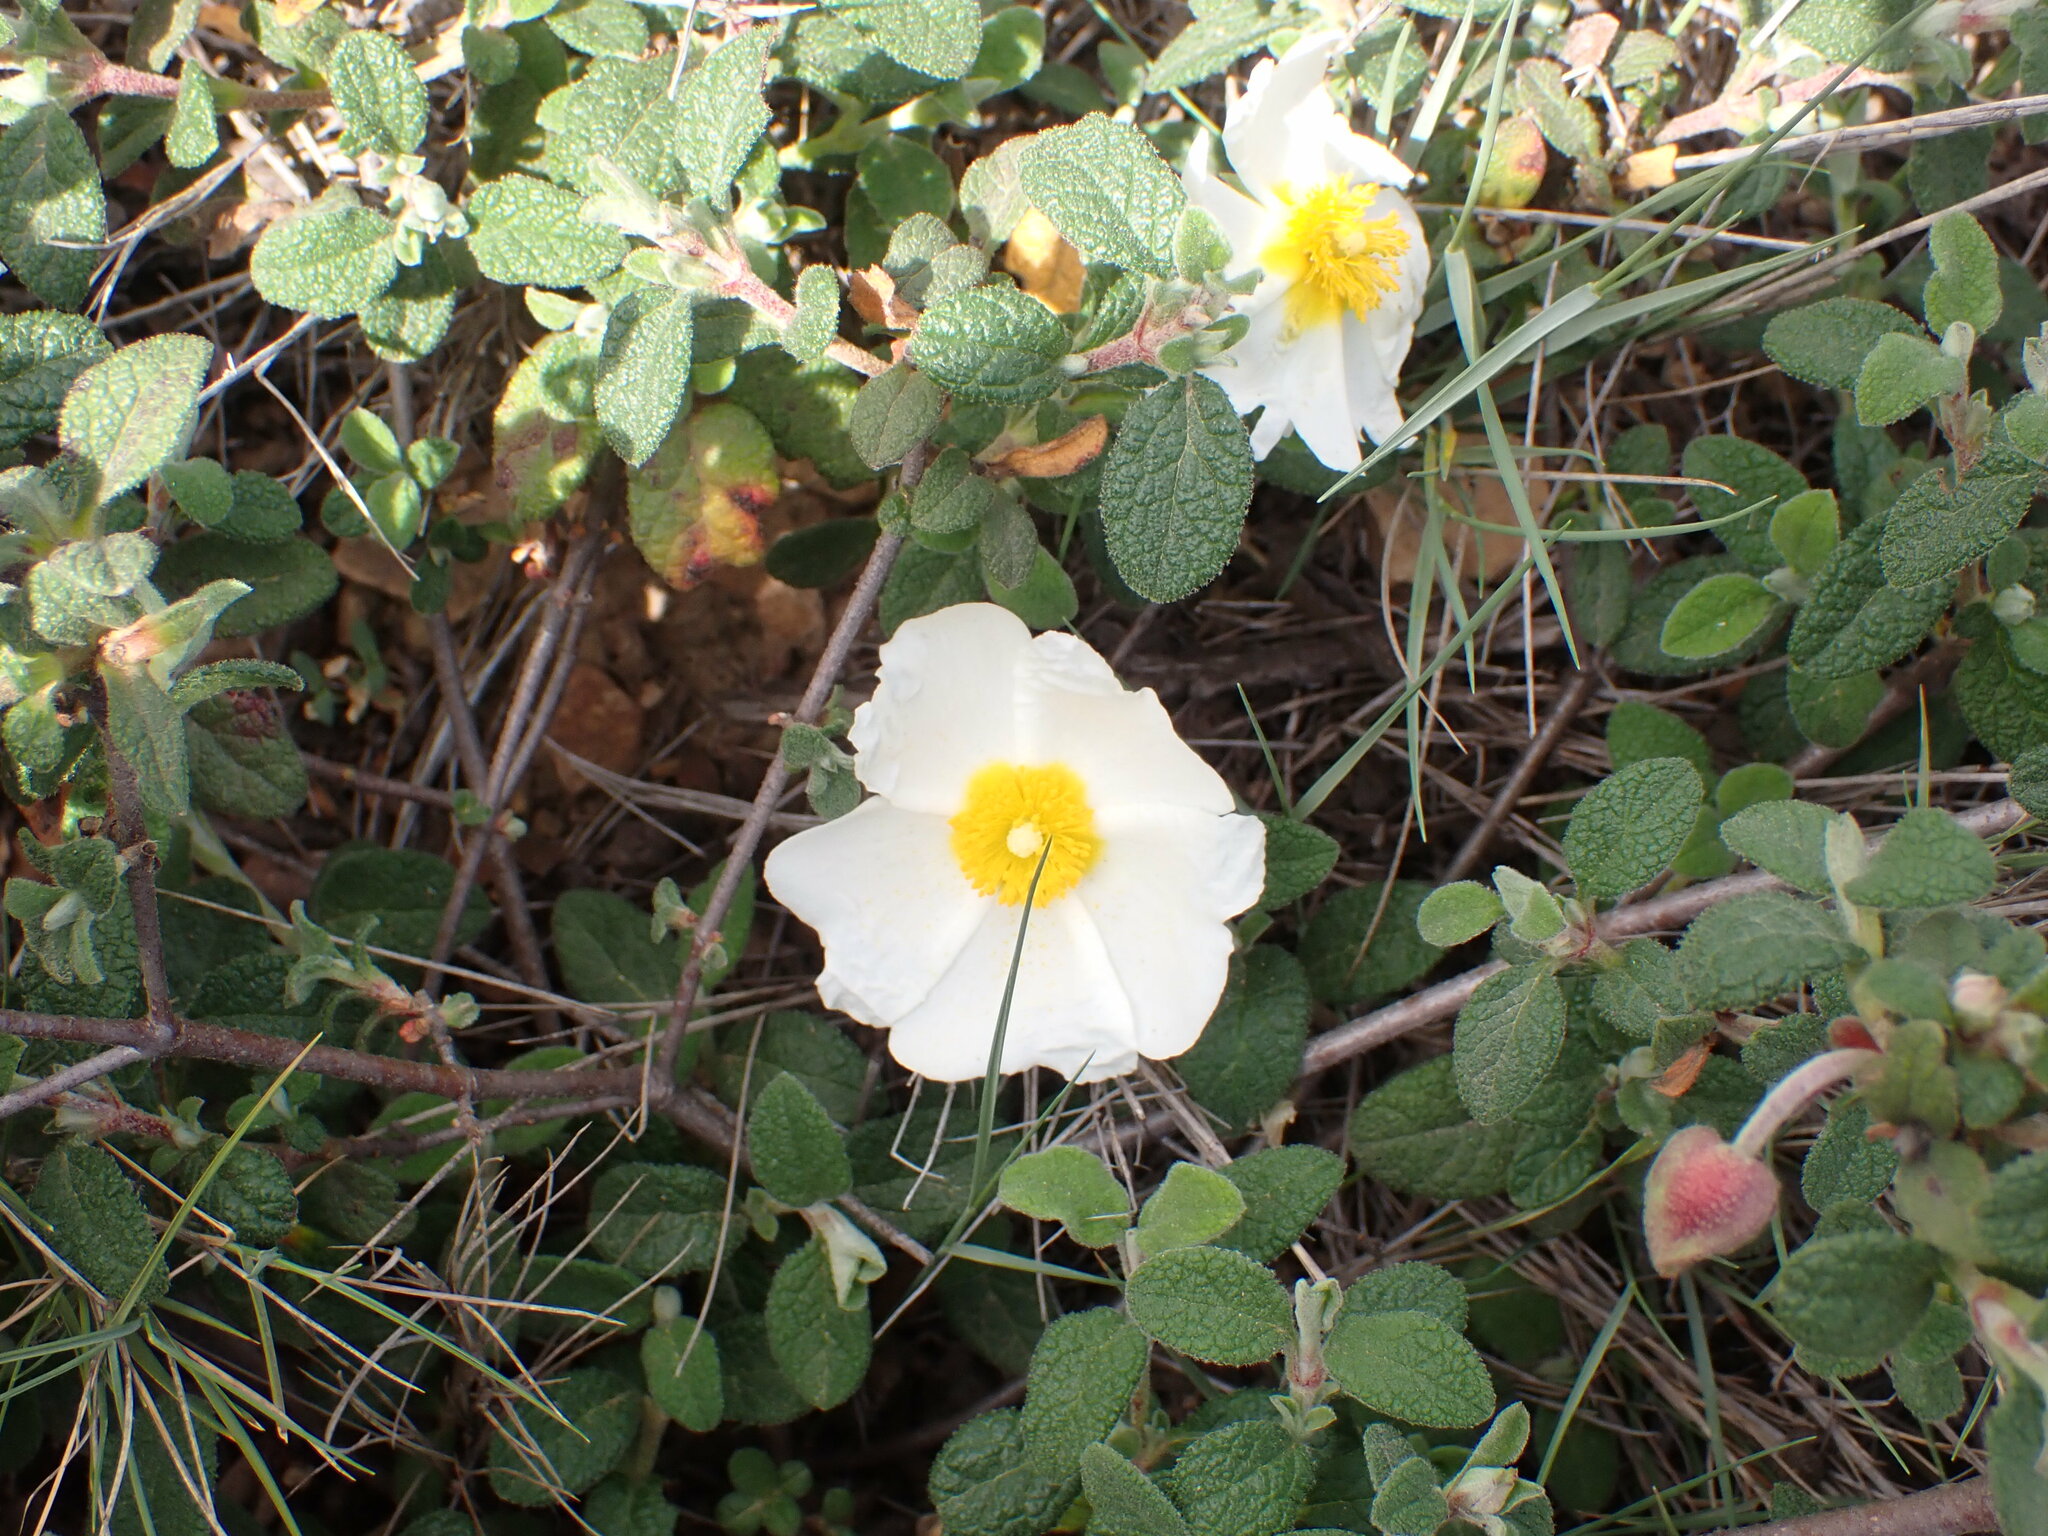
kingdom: Plantae
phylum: Tracheophyta
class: Magnoliopsida
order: Malvales
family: Cistaceae
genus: Cistus
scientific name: Cistus salviifolius
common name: Salvia cistus
